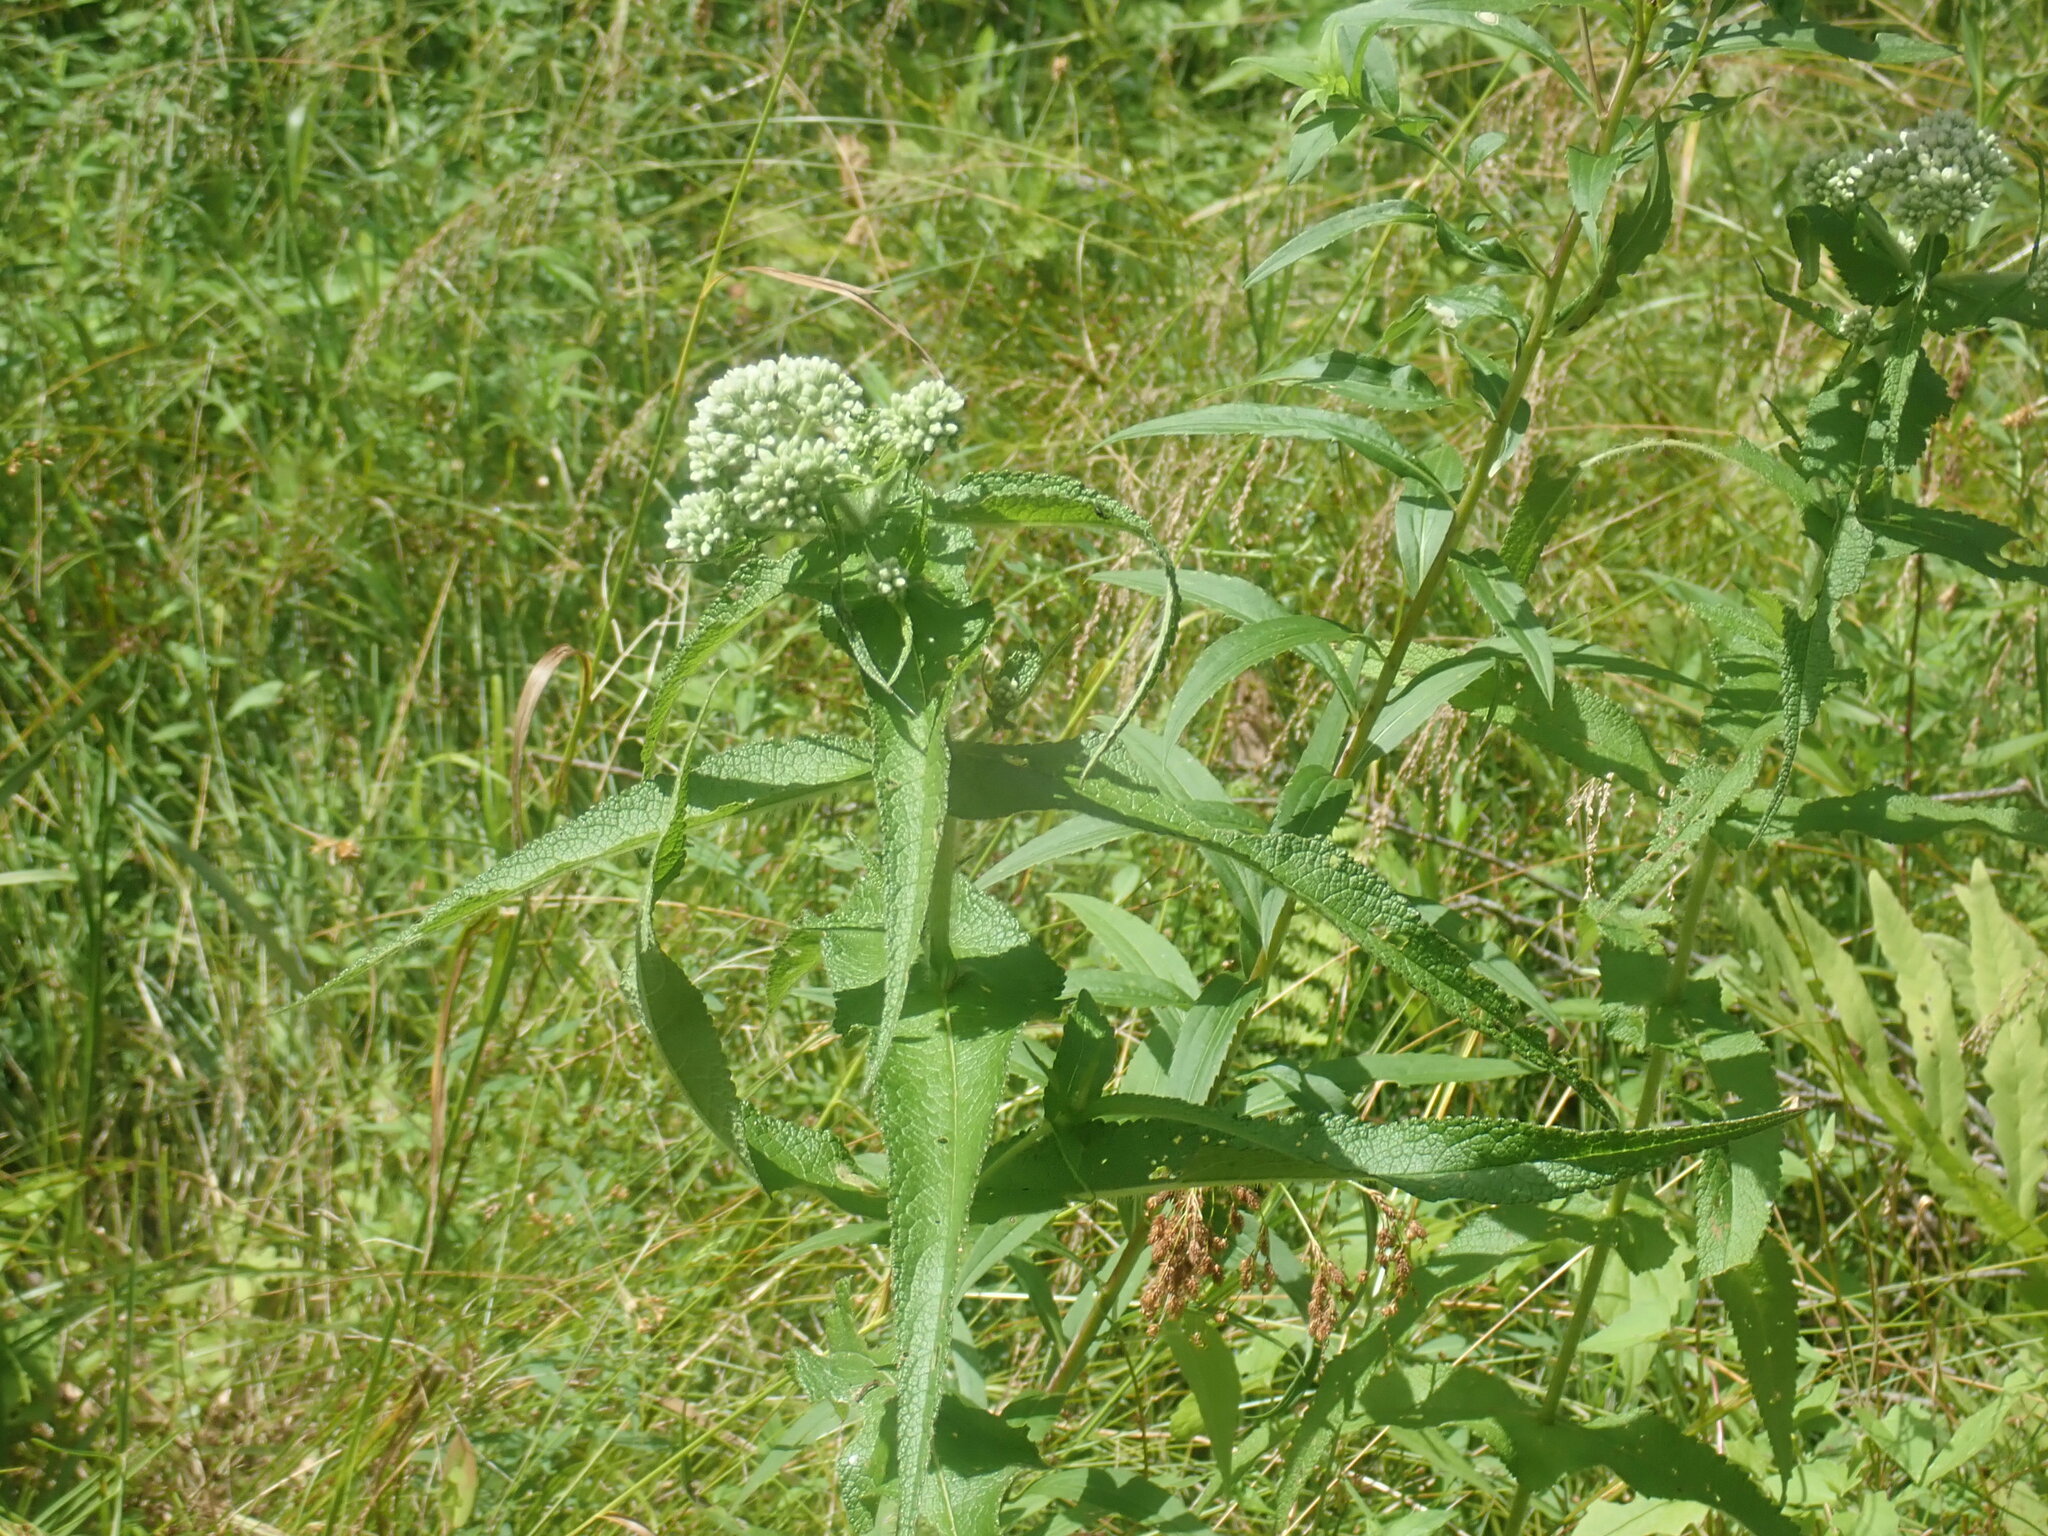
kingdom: Plantae
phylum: Tracheophyta
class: Magnoliopsida
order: Asterales
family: Asteraceae
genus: Eupatorium
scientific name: Eupatorium perfoliatum
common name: Boneset
